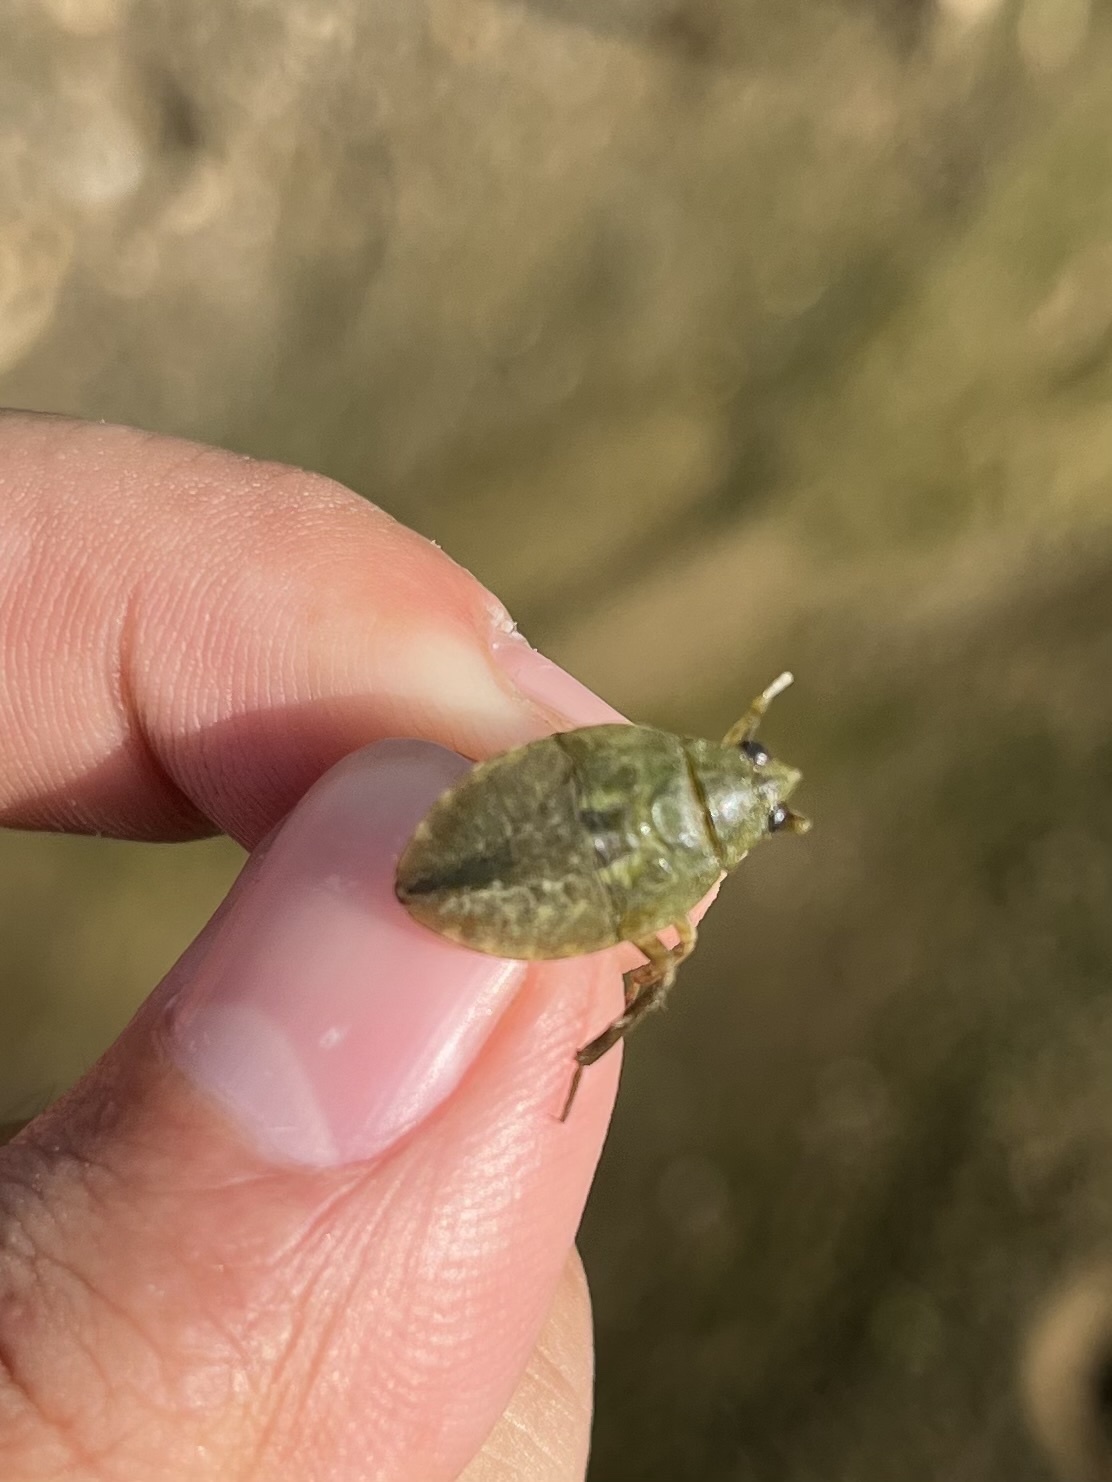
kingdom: Animalia
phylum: Arthropoda
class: Insecta
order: Hemiptera
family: Belostomatidae
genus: Belostoma
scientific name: Belostoma
